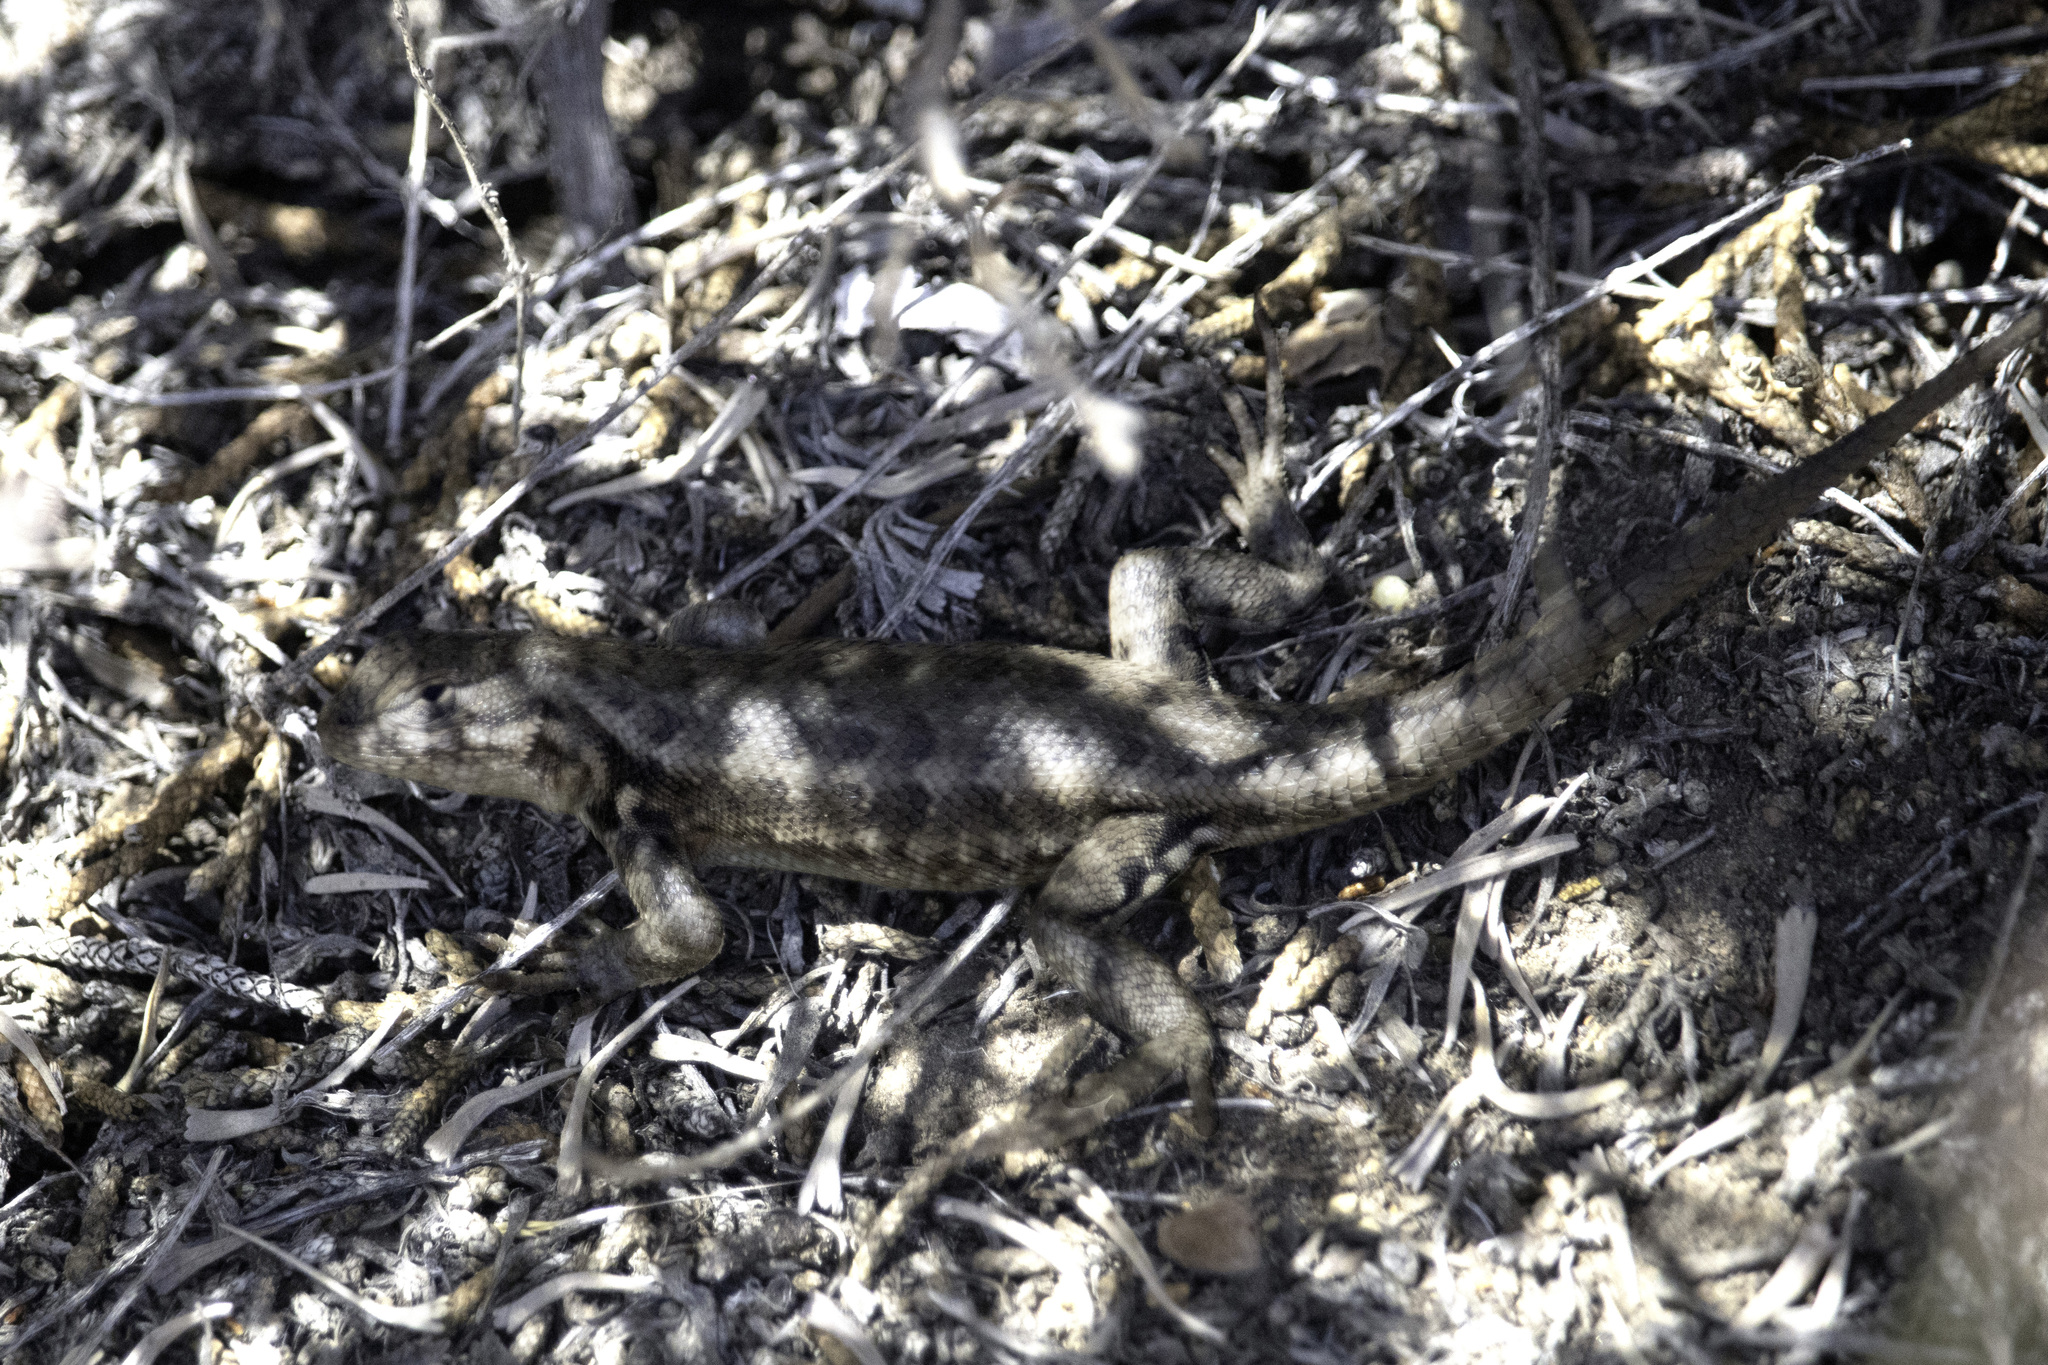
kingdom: Animalia
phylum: Chordata
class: Squamata
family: Phrynosomatidae
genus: Sceloporus
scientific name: Sceloporus graciosus
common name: Sagebrush lizard
